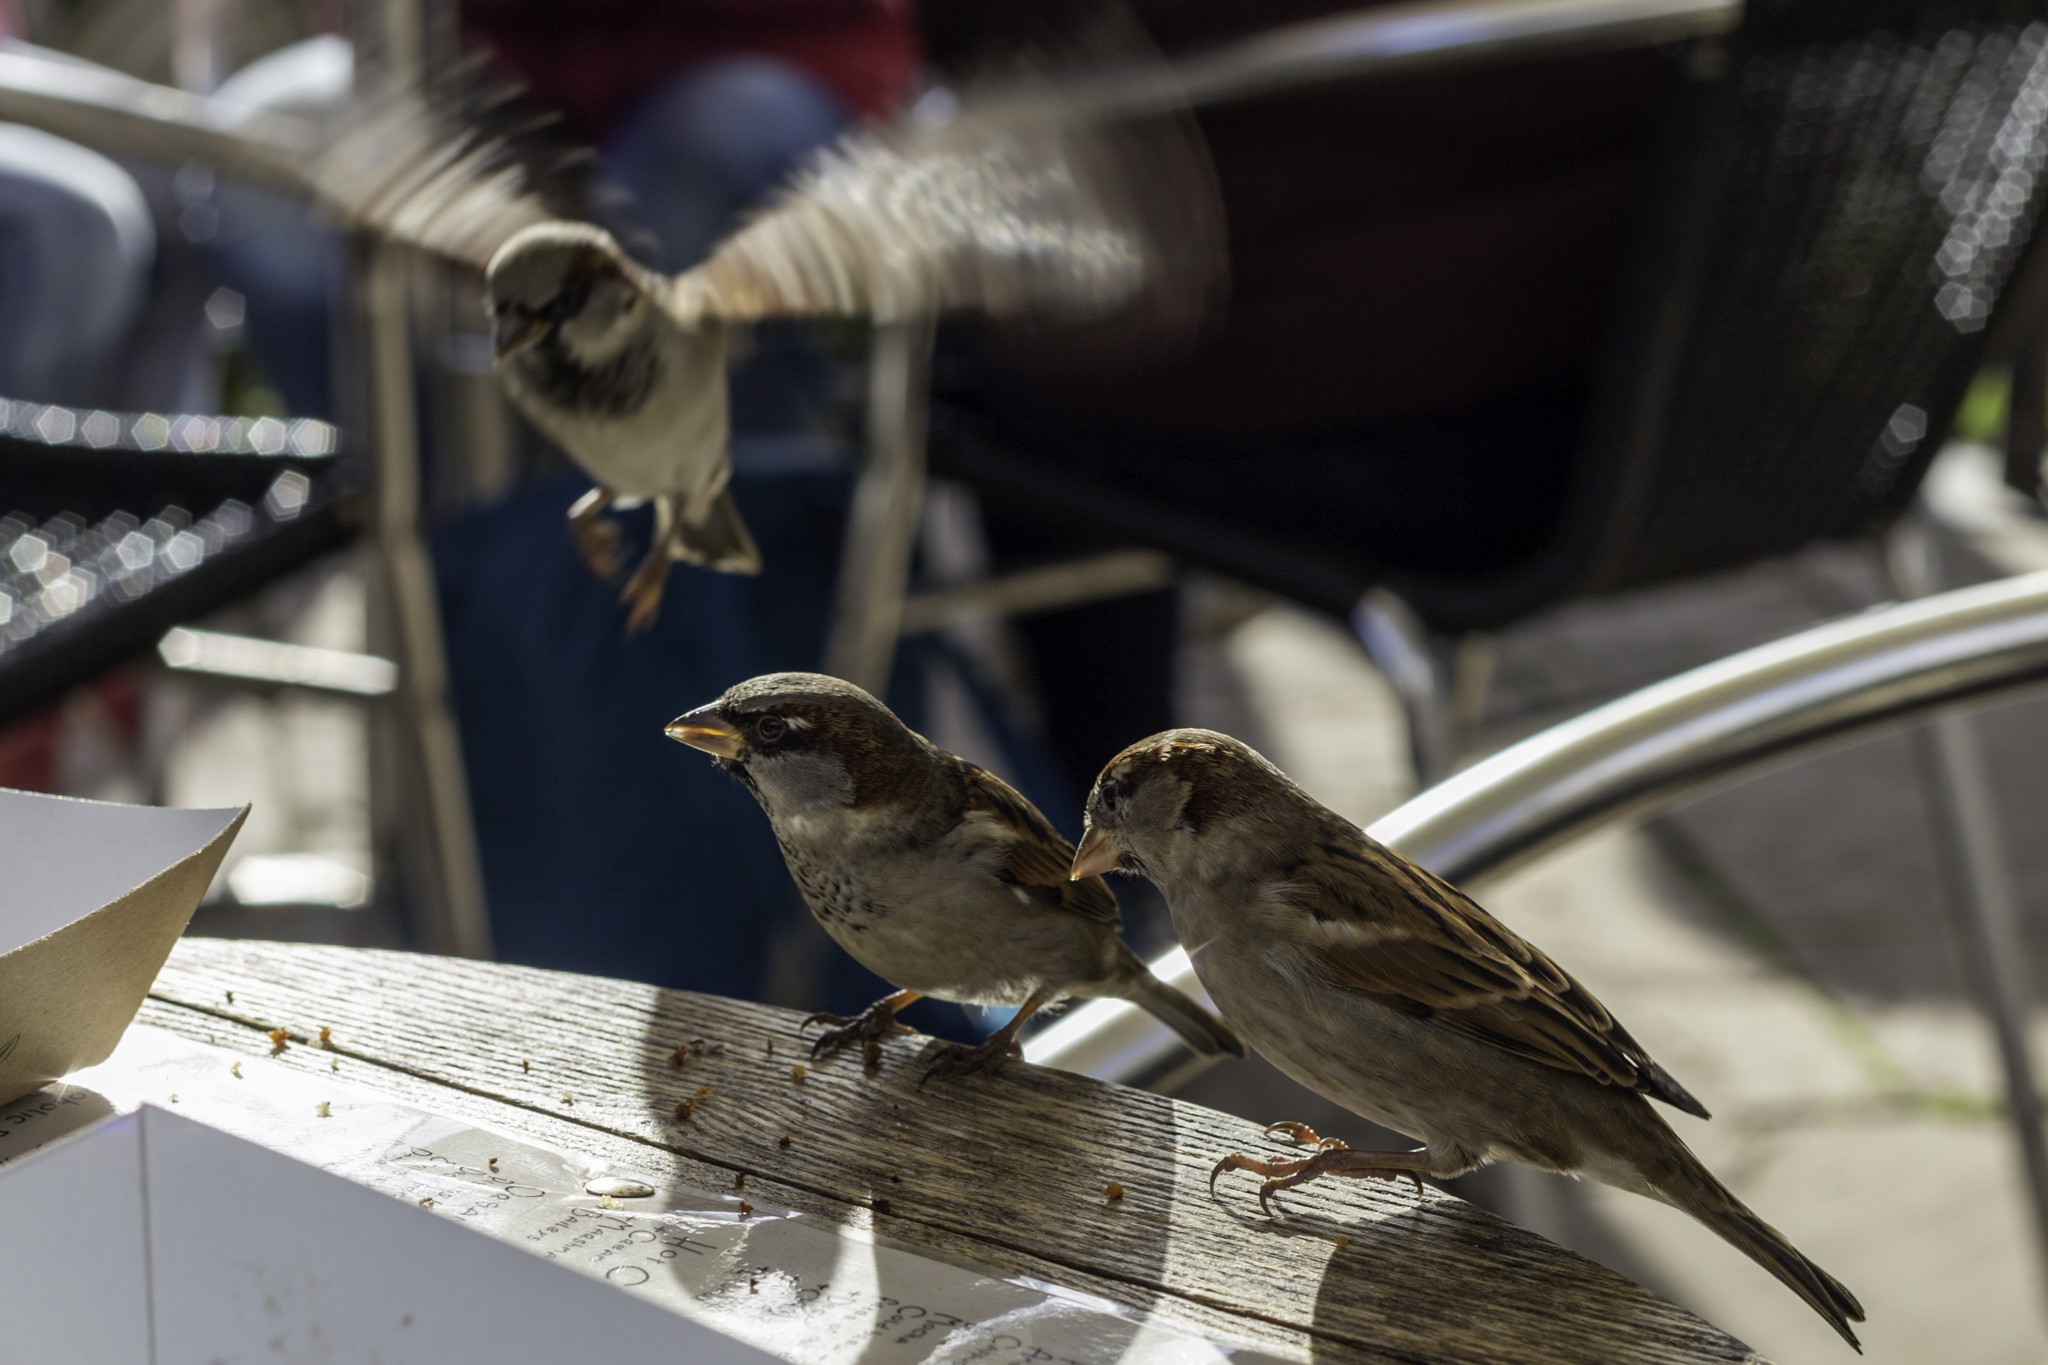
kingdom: Animalia
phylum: Chordata
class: Aves
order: Passeriformes
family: Passeridae
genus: Passer
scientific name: Passer domesticus
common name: House sparrow
